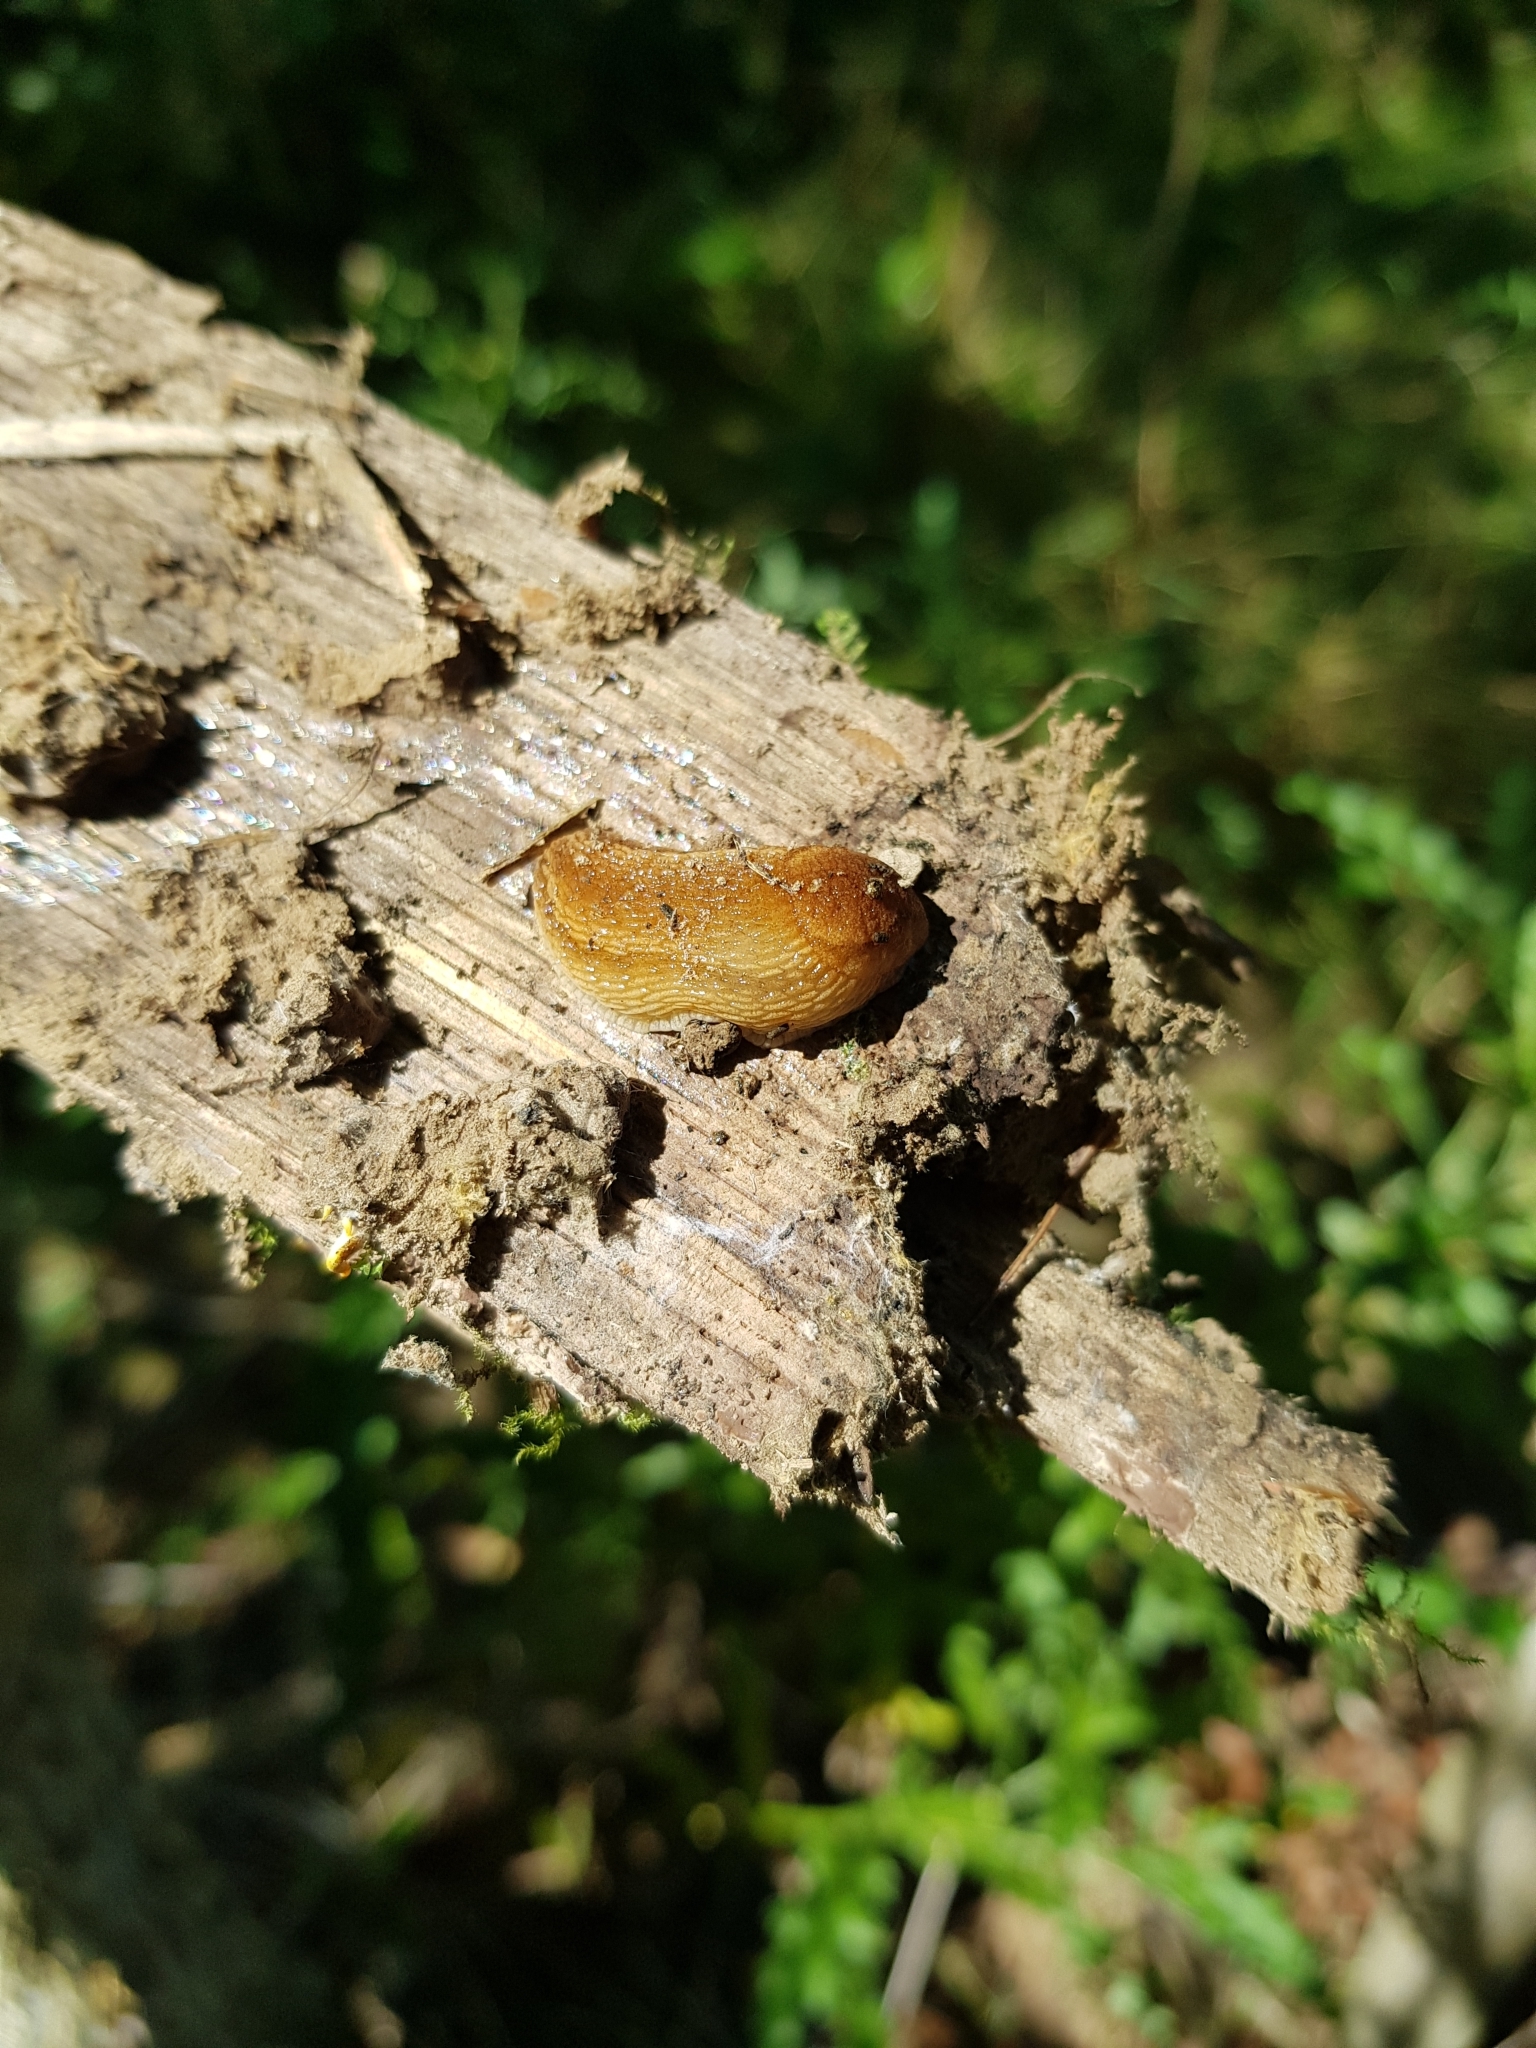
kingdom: Animalia
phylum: Mollusca
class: Gastropoda
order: Stylommatophora
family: Arionidae
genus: Arion
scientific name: Arion subfuscus
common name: Dusky arion
